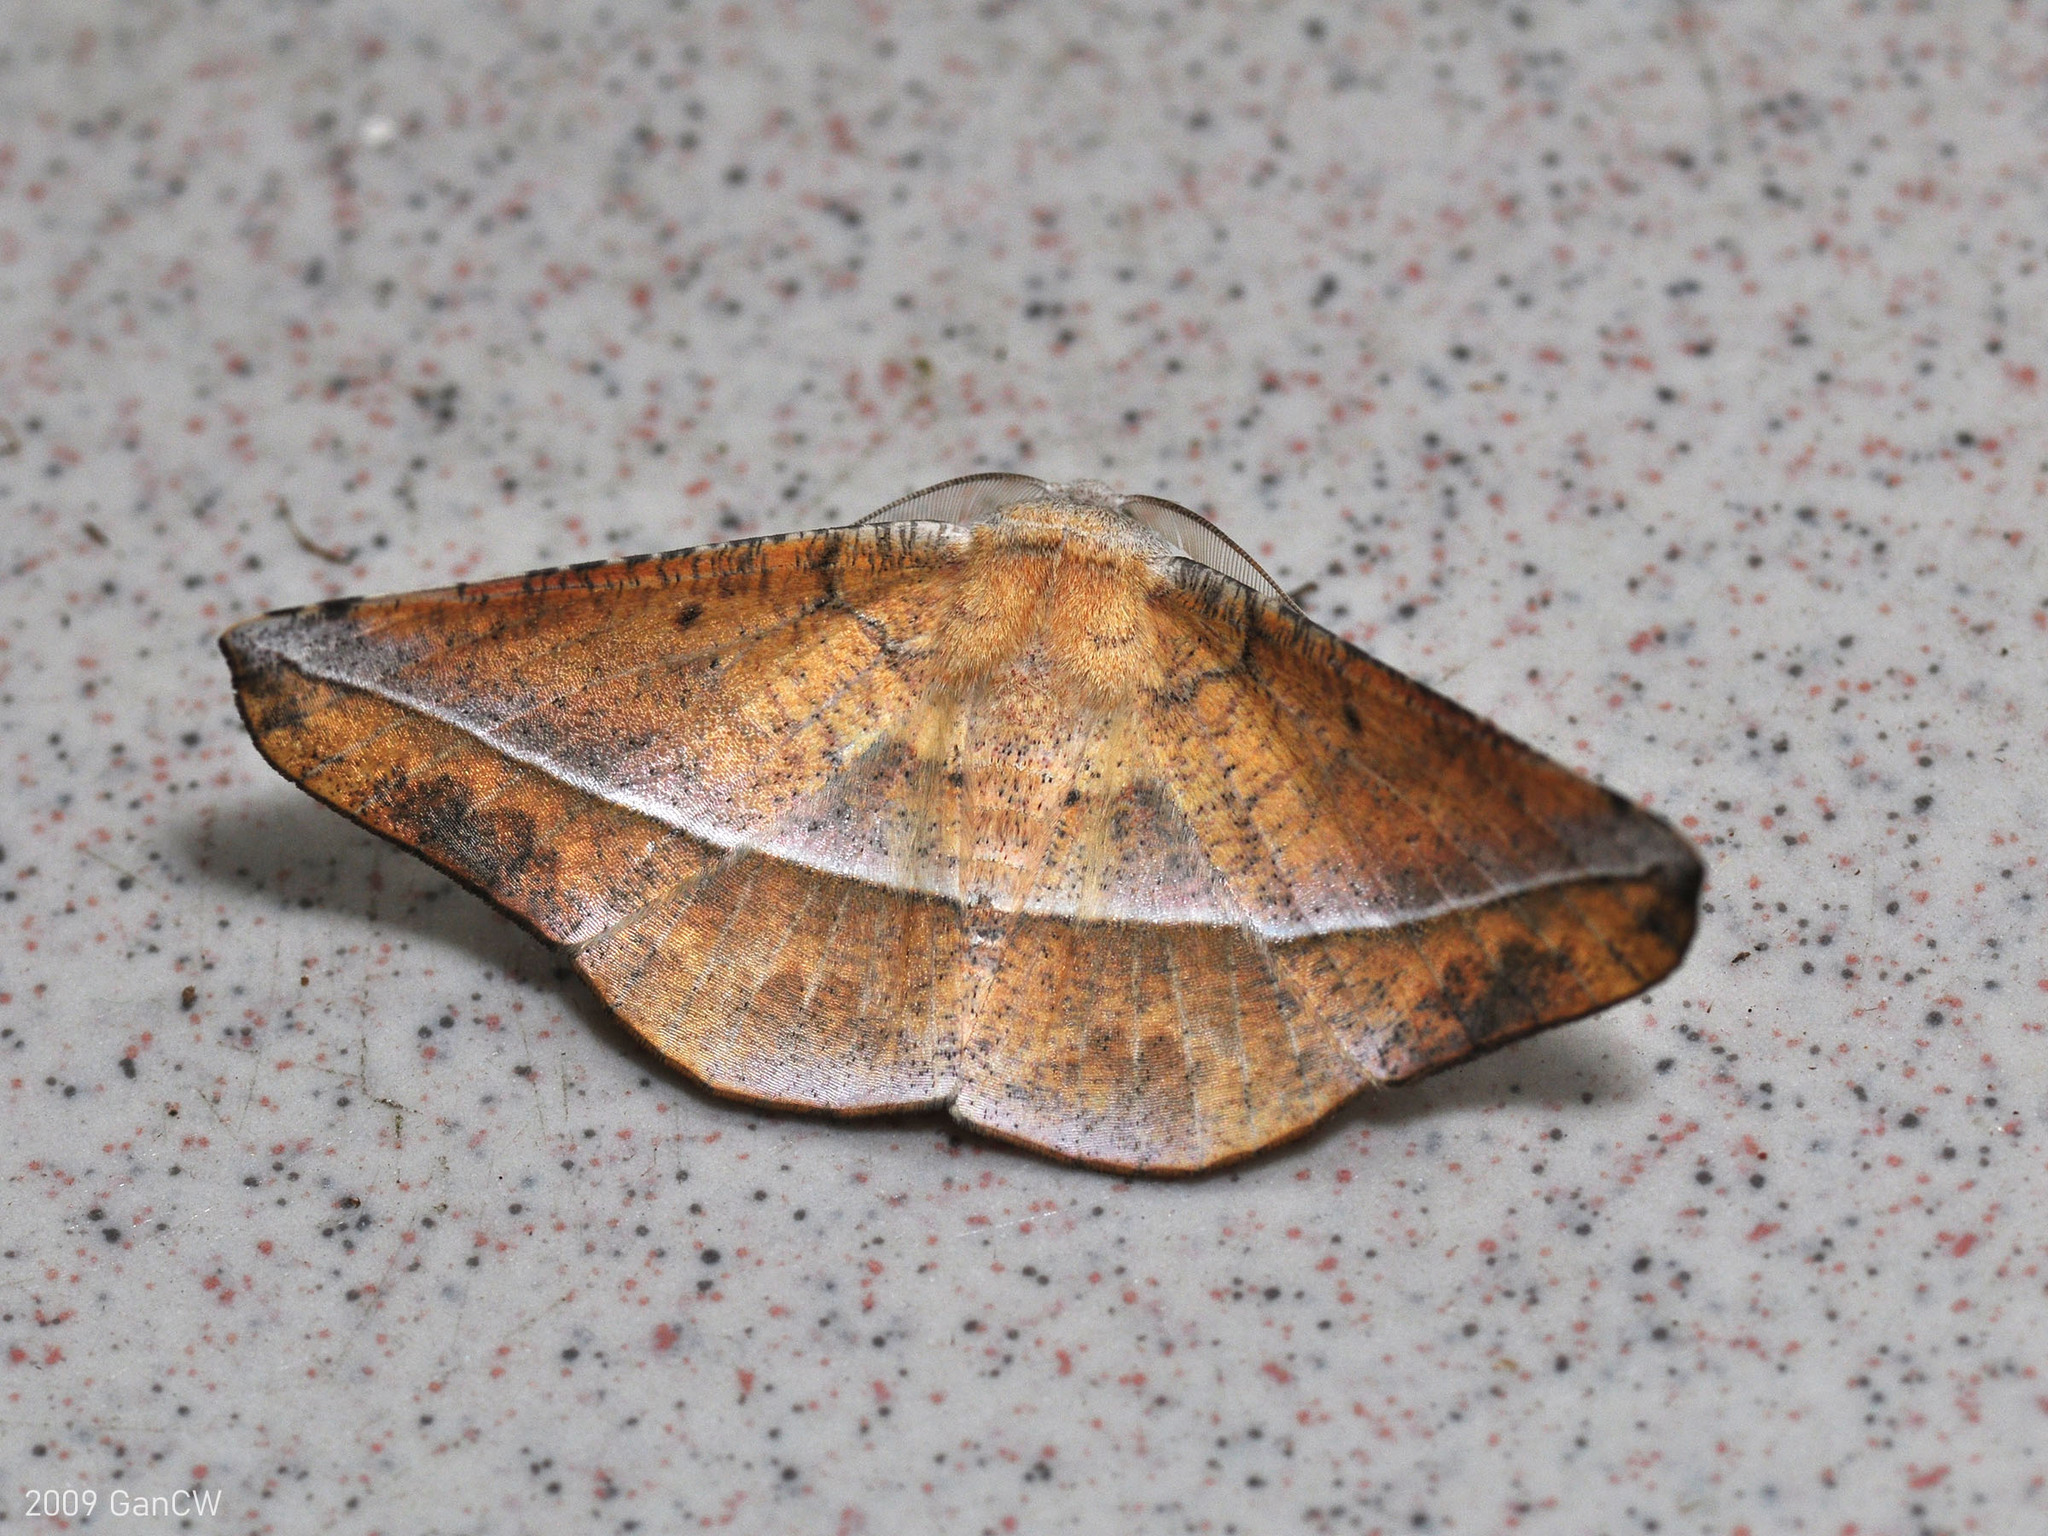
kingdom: Animalia
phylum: Arthropoda
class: Insecta
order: Lepidoptera
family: Geometridae
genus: Sarcinodes
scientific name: Sarcinodes tornubilatus
